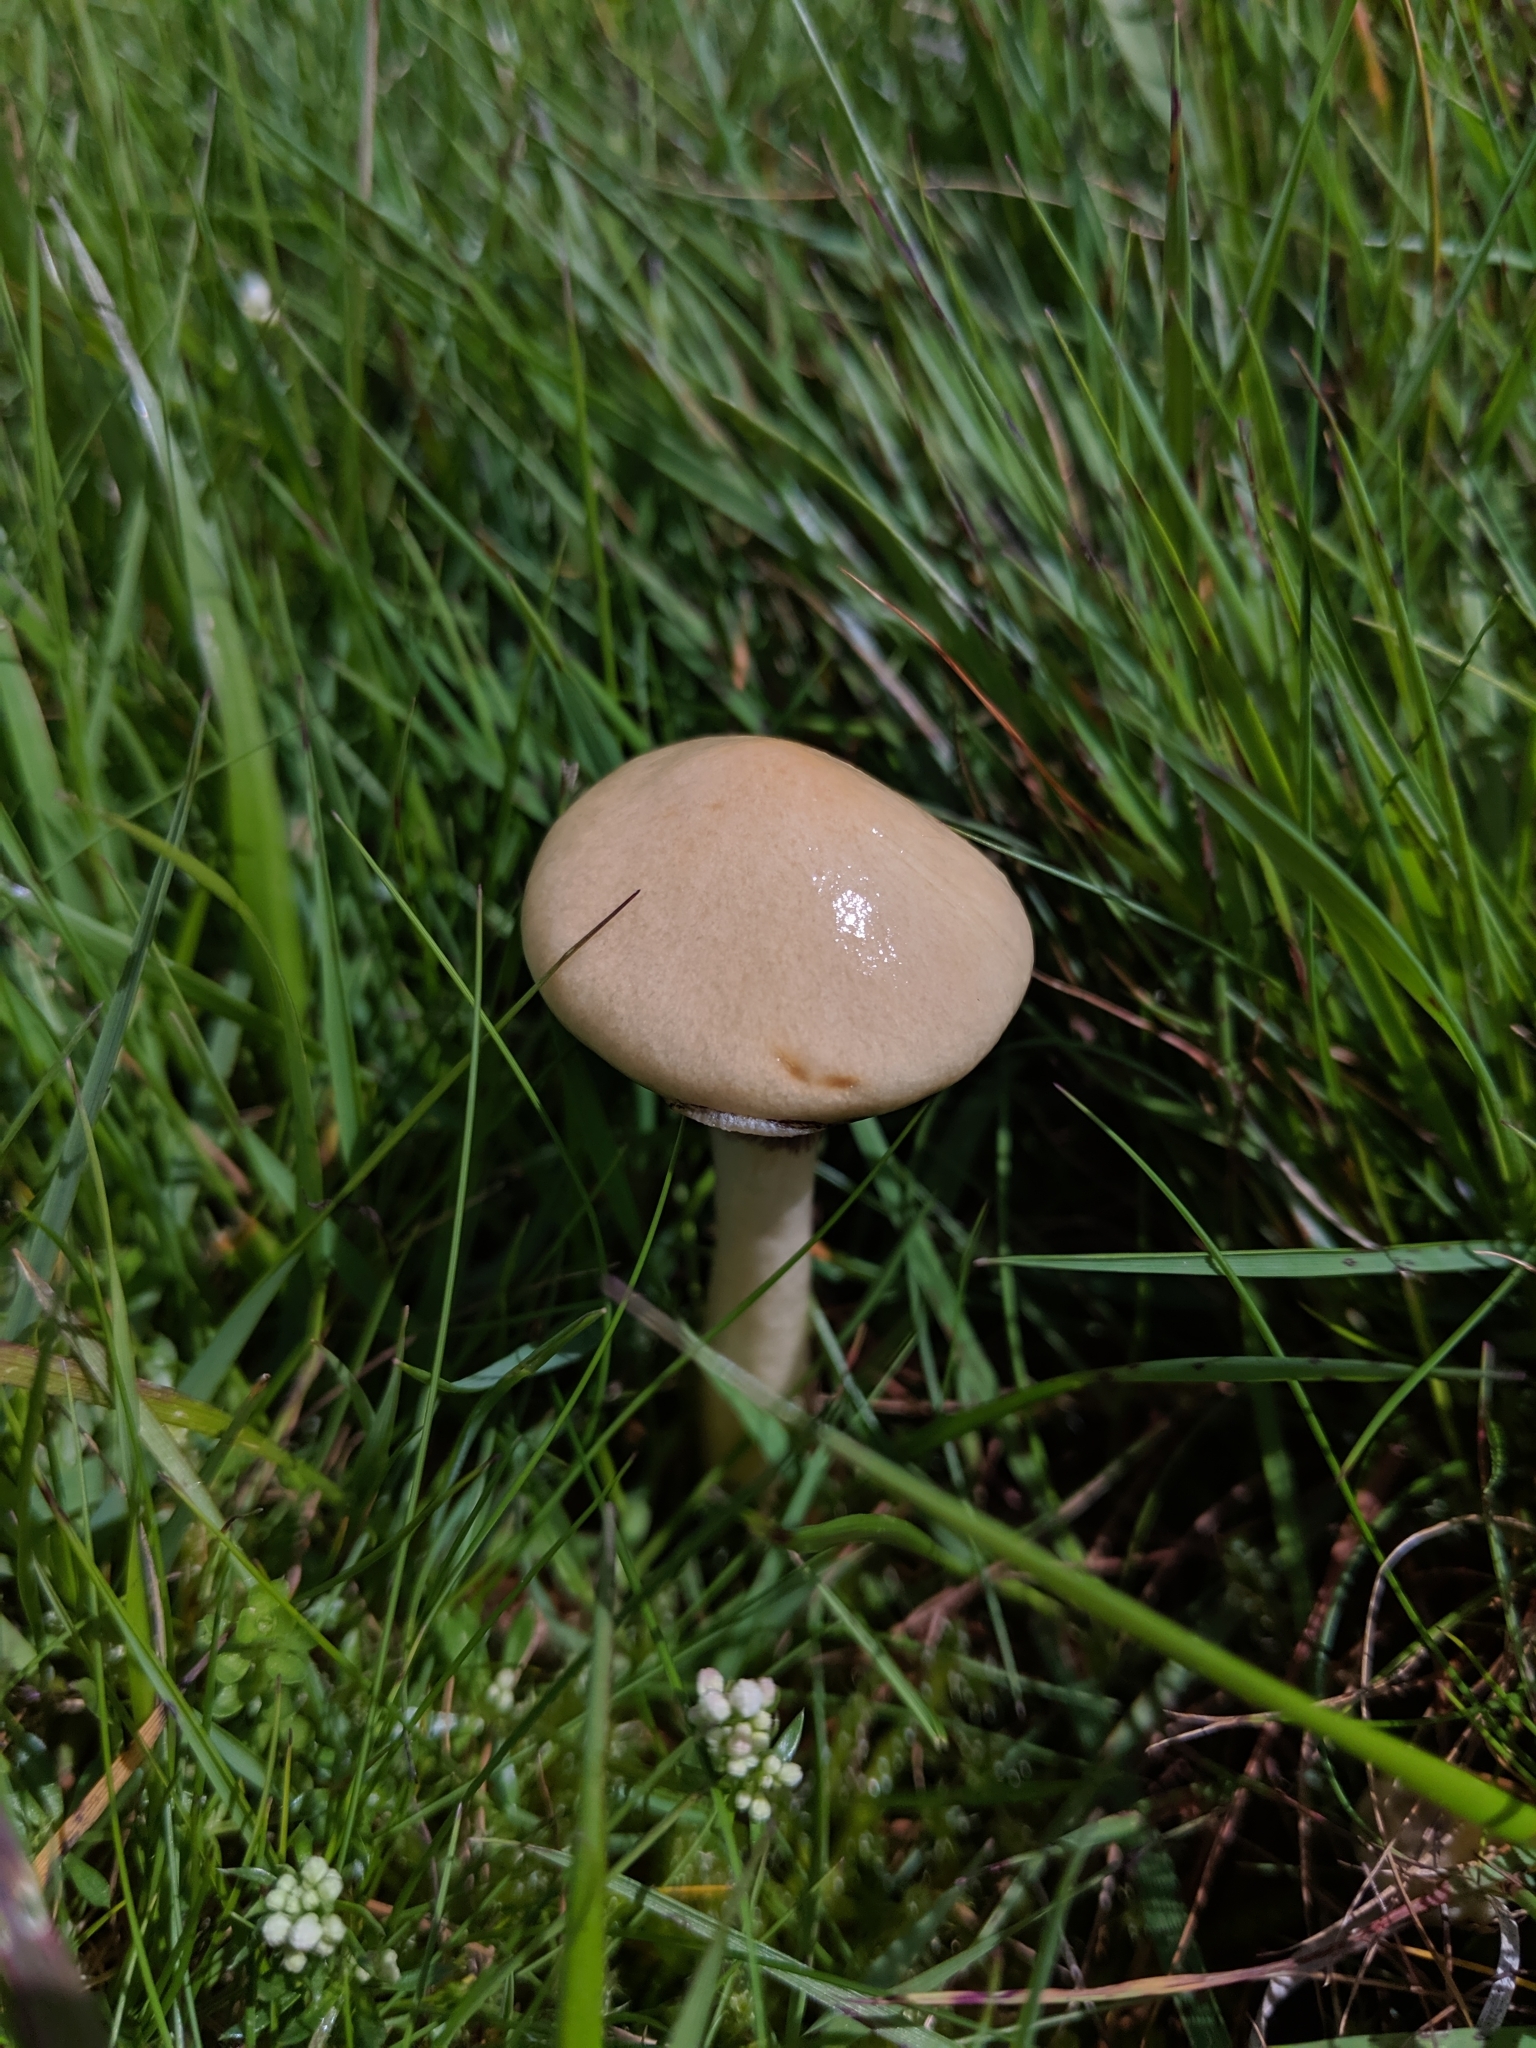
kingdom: Fungi
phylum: Basidiomycota
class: Agaricomycetes
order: Agaricales
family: Strophariaceae
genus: Protostropharia
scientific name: Protostropharia semiglobata
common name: Dung roundhead
